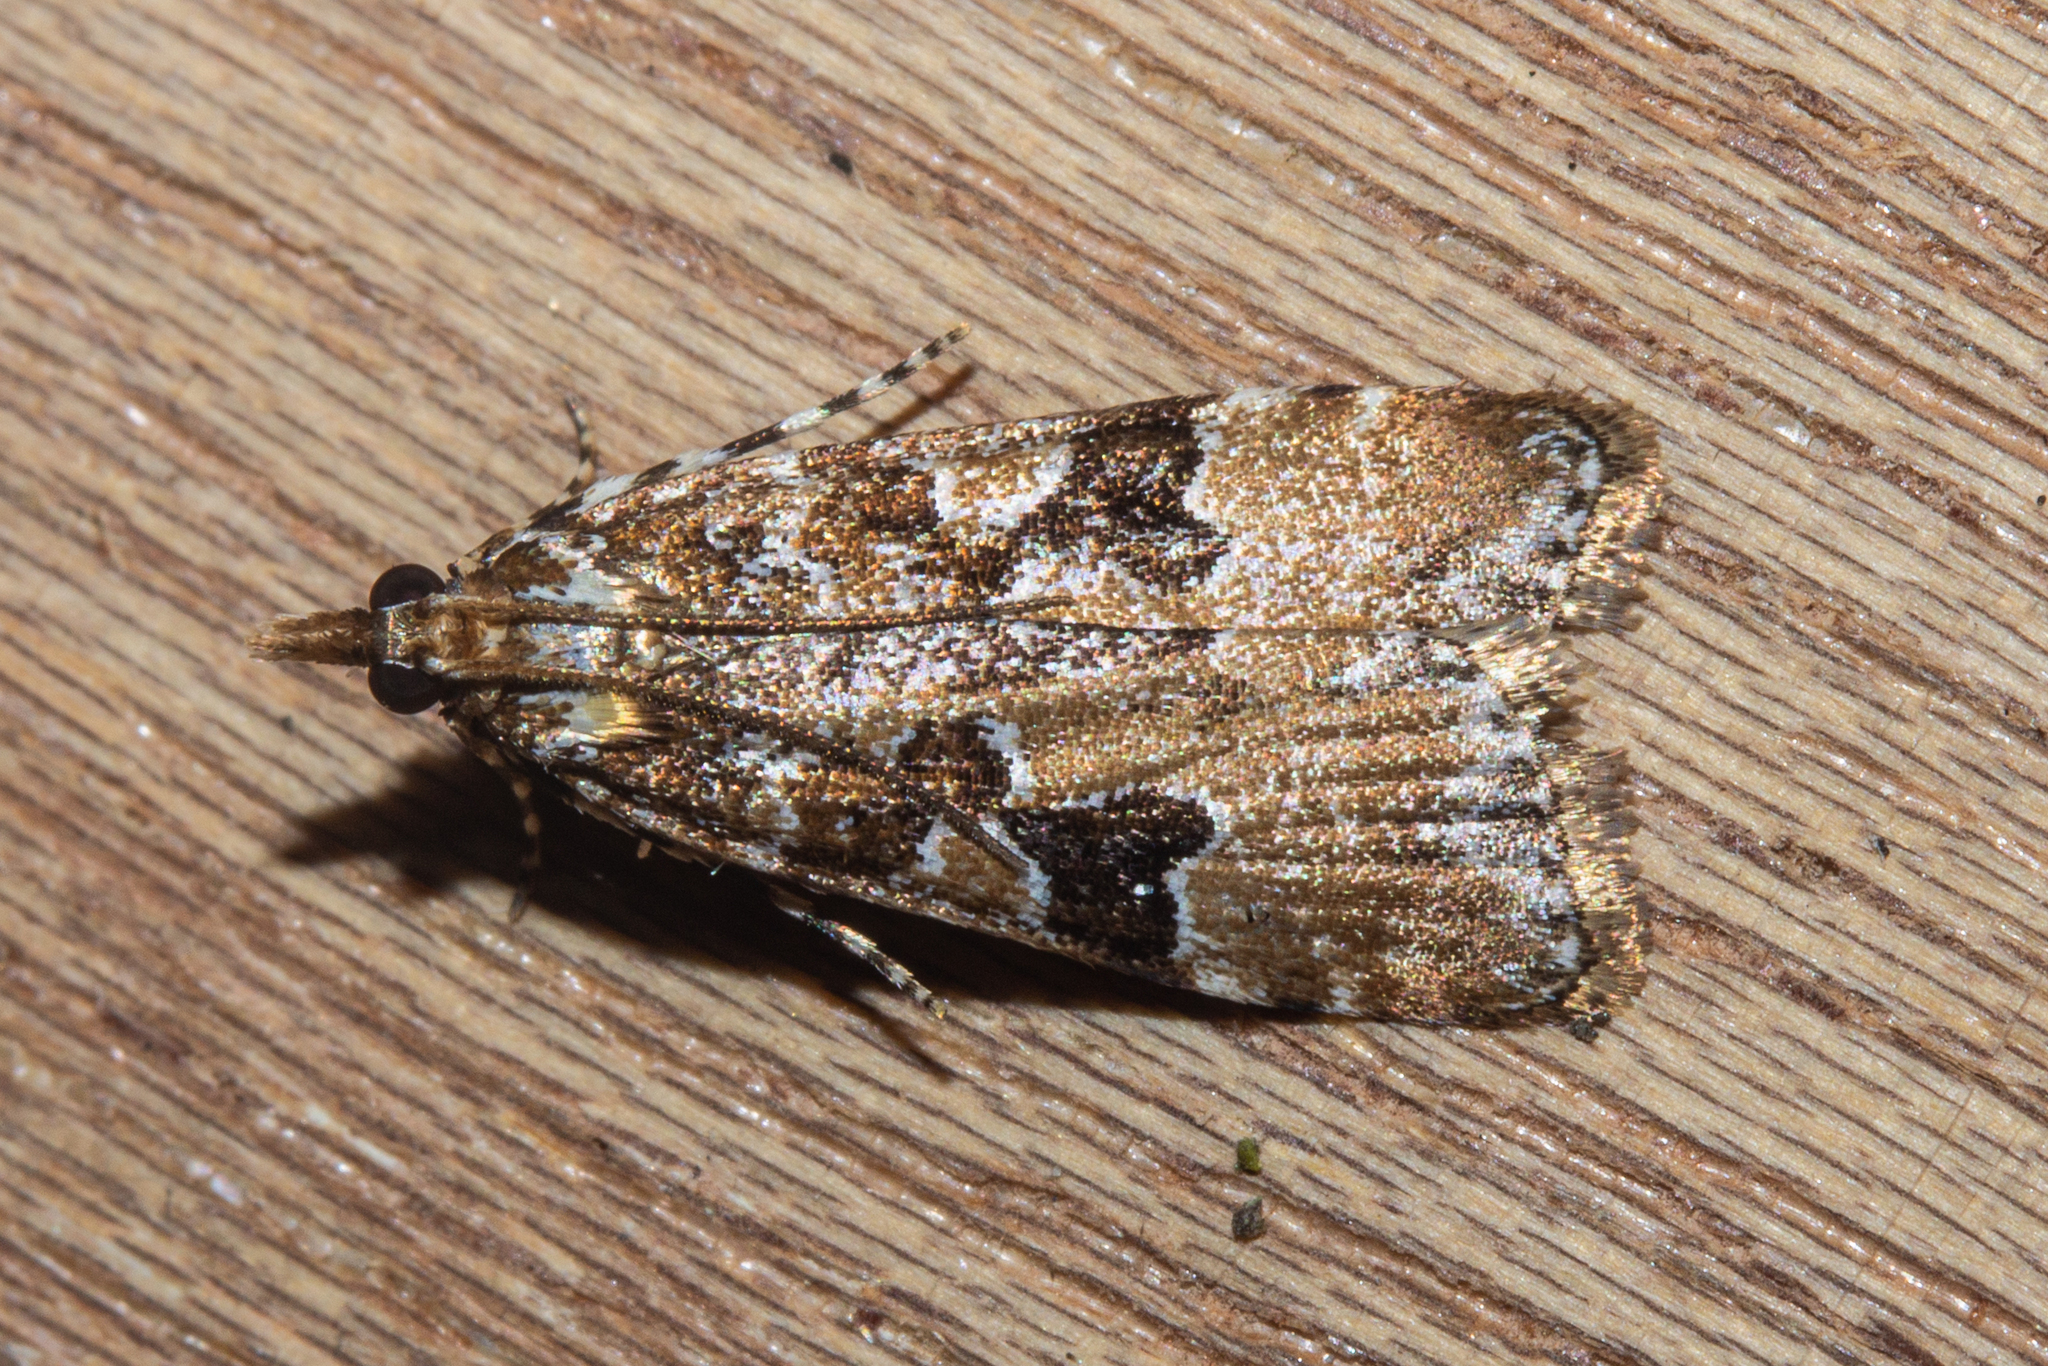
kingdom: Animalia
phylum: Arthropoda
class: Insecta
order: Lepidoptera
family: Crambidae
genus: Scoparia
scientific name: Scoparia ustimacula
